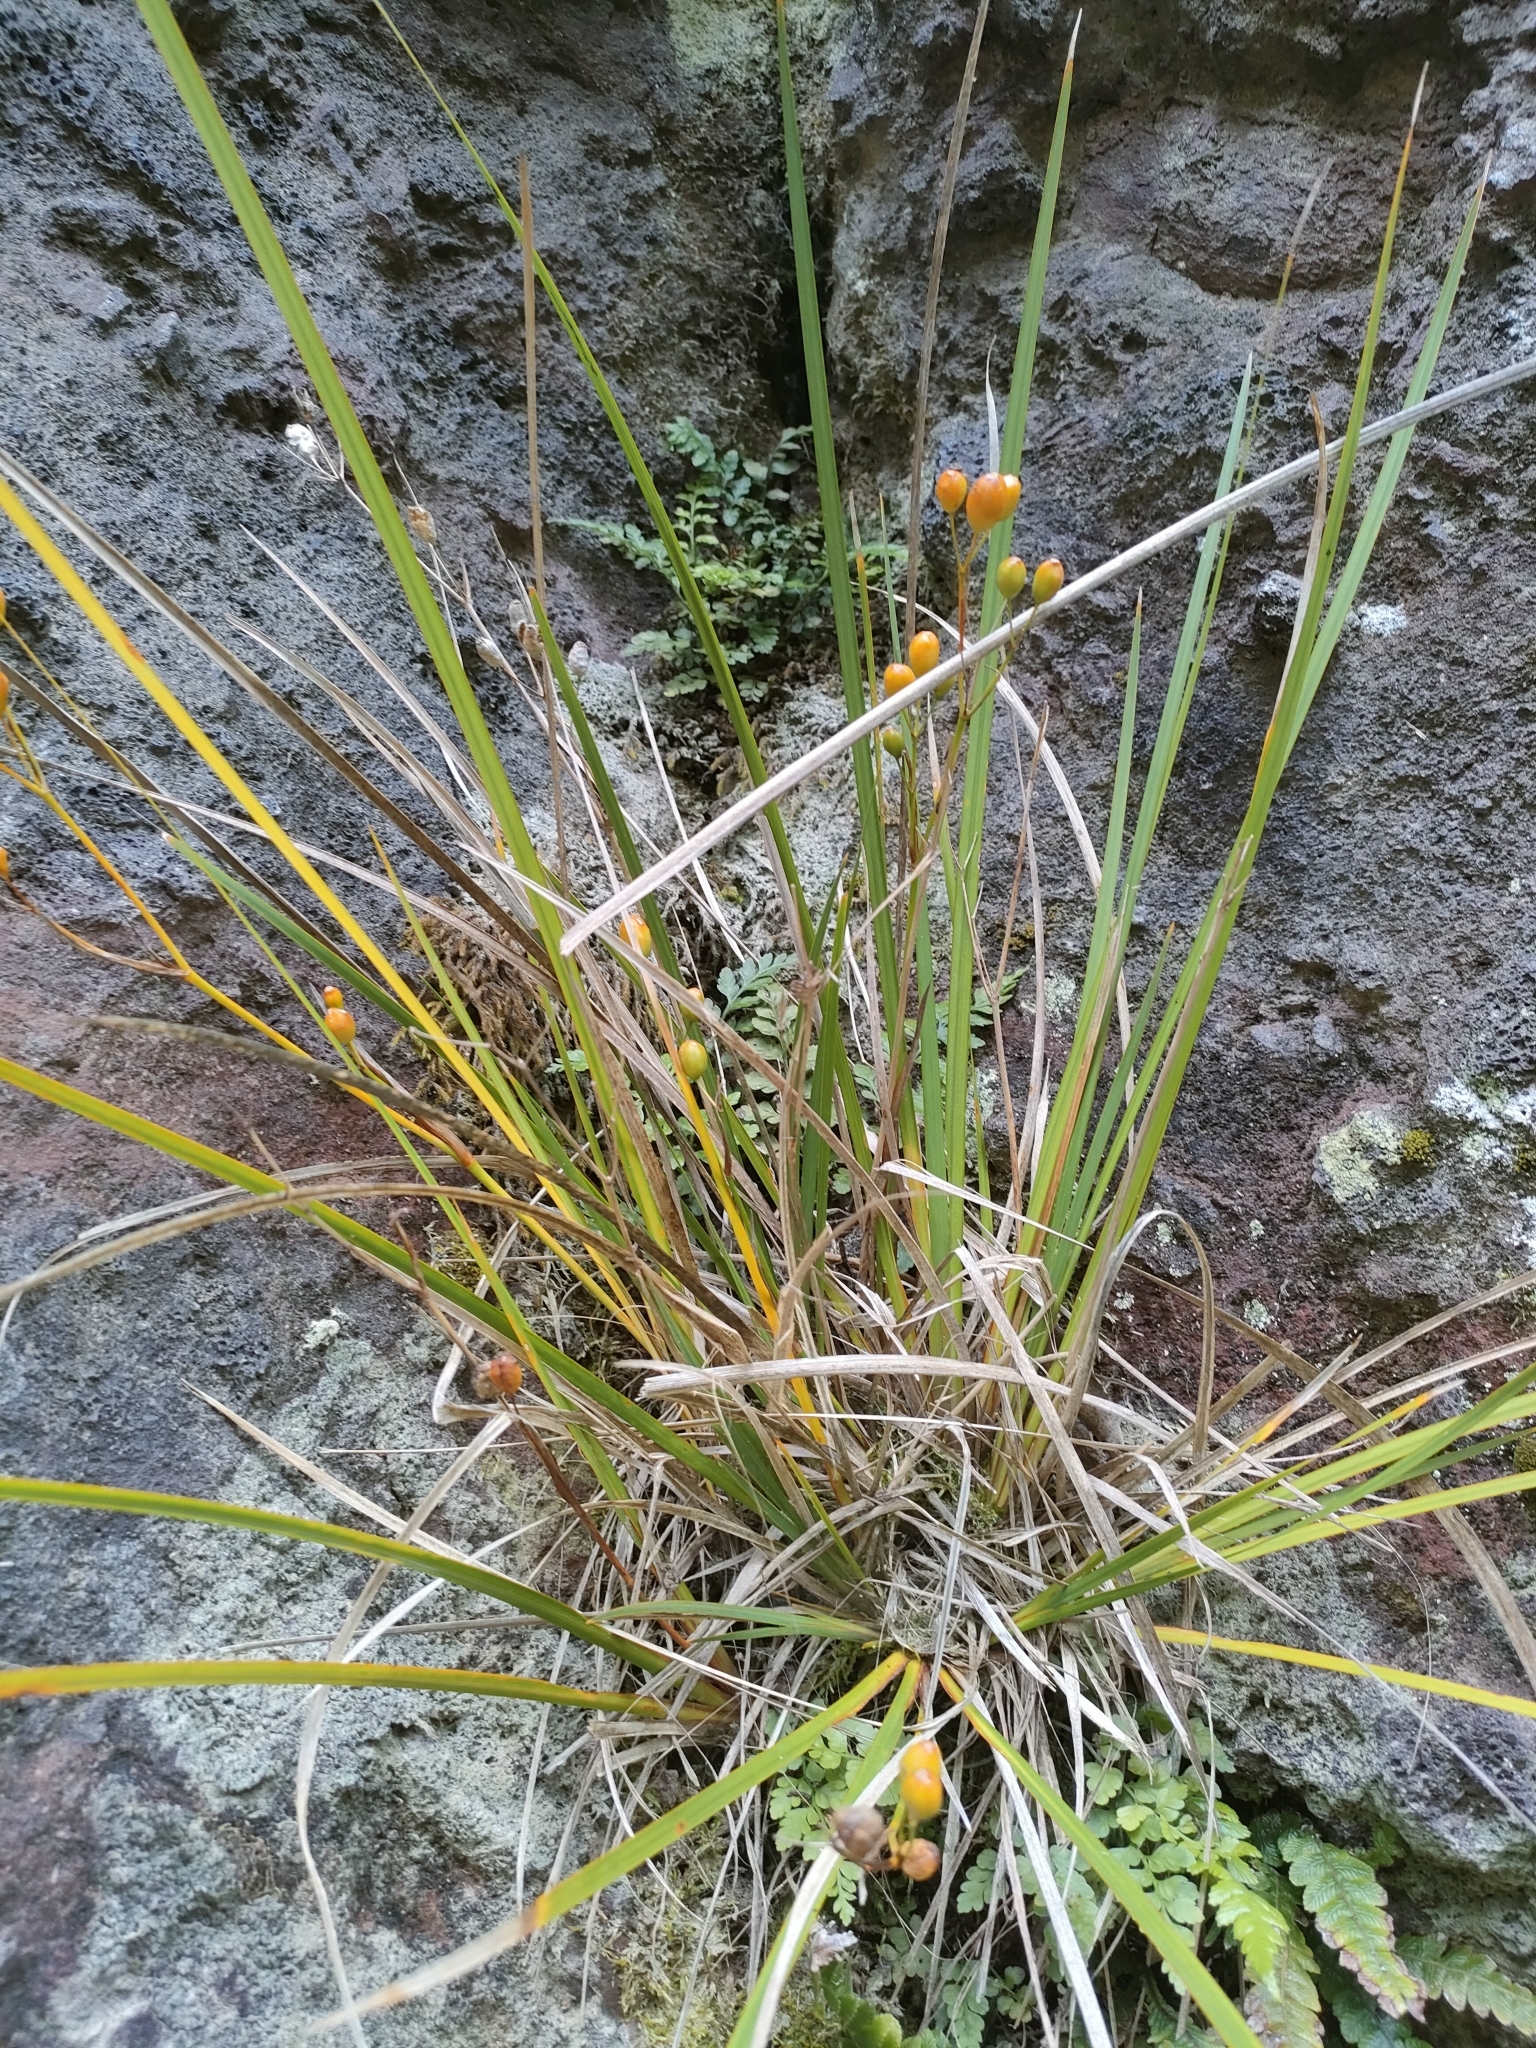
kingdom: Plantae
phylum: Tracheophyta
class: Liliopsida
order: Asparagales
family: Iridaceae
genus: Libertia
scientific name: Libertia ixioides
